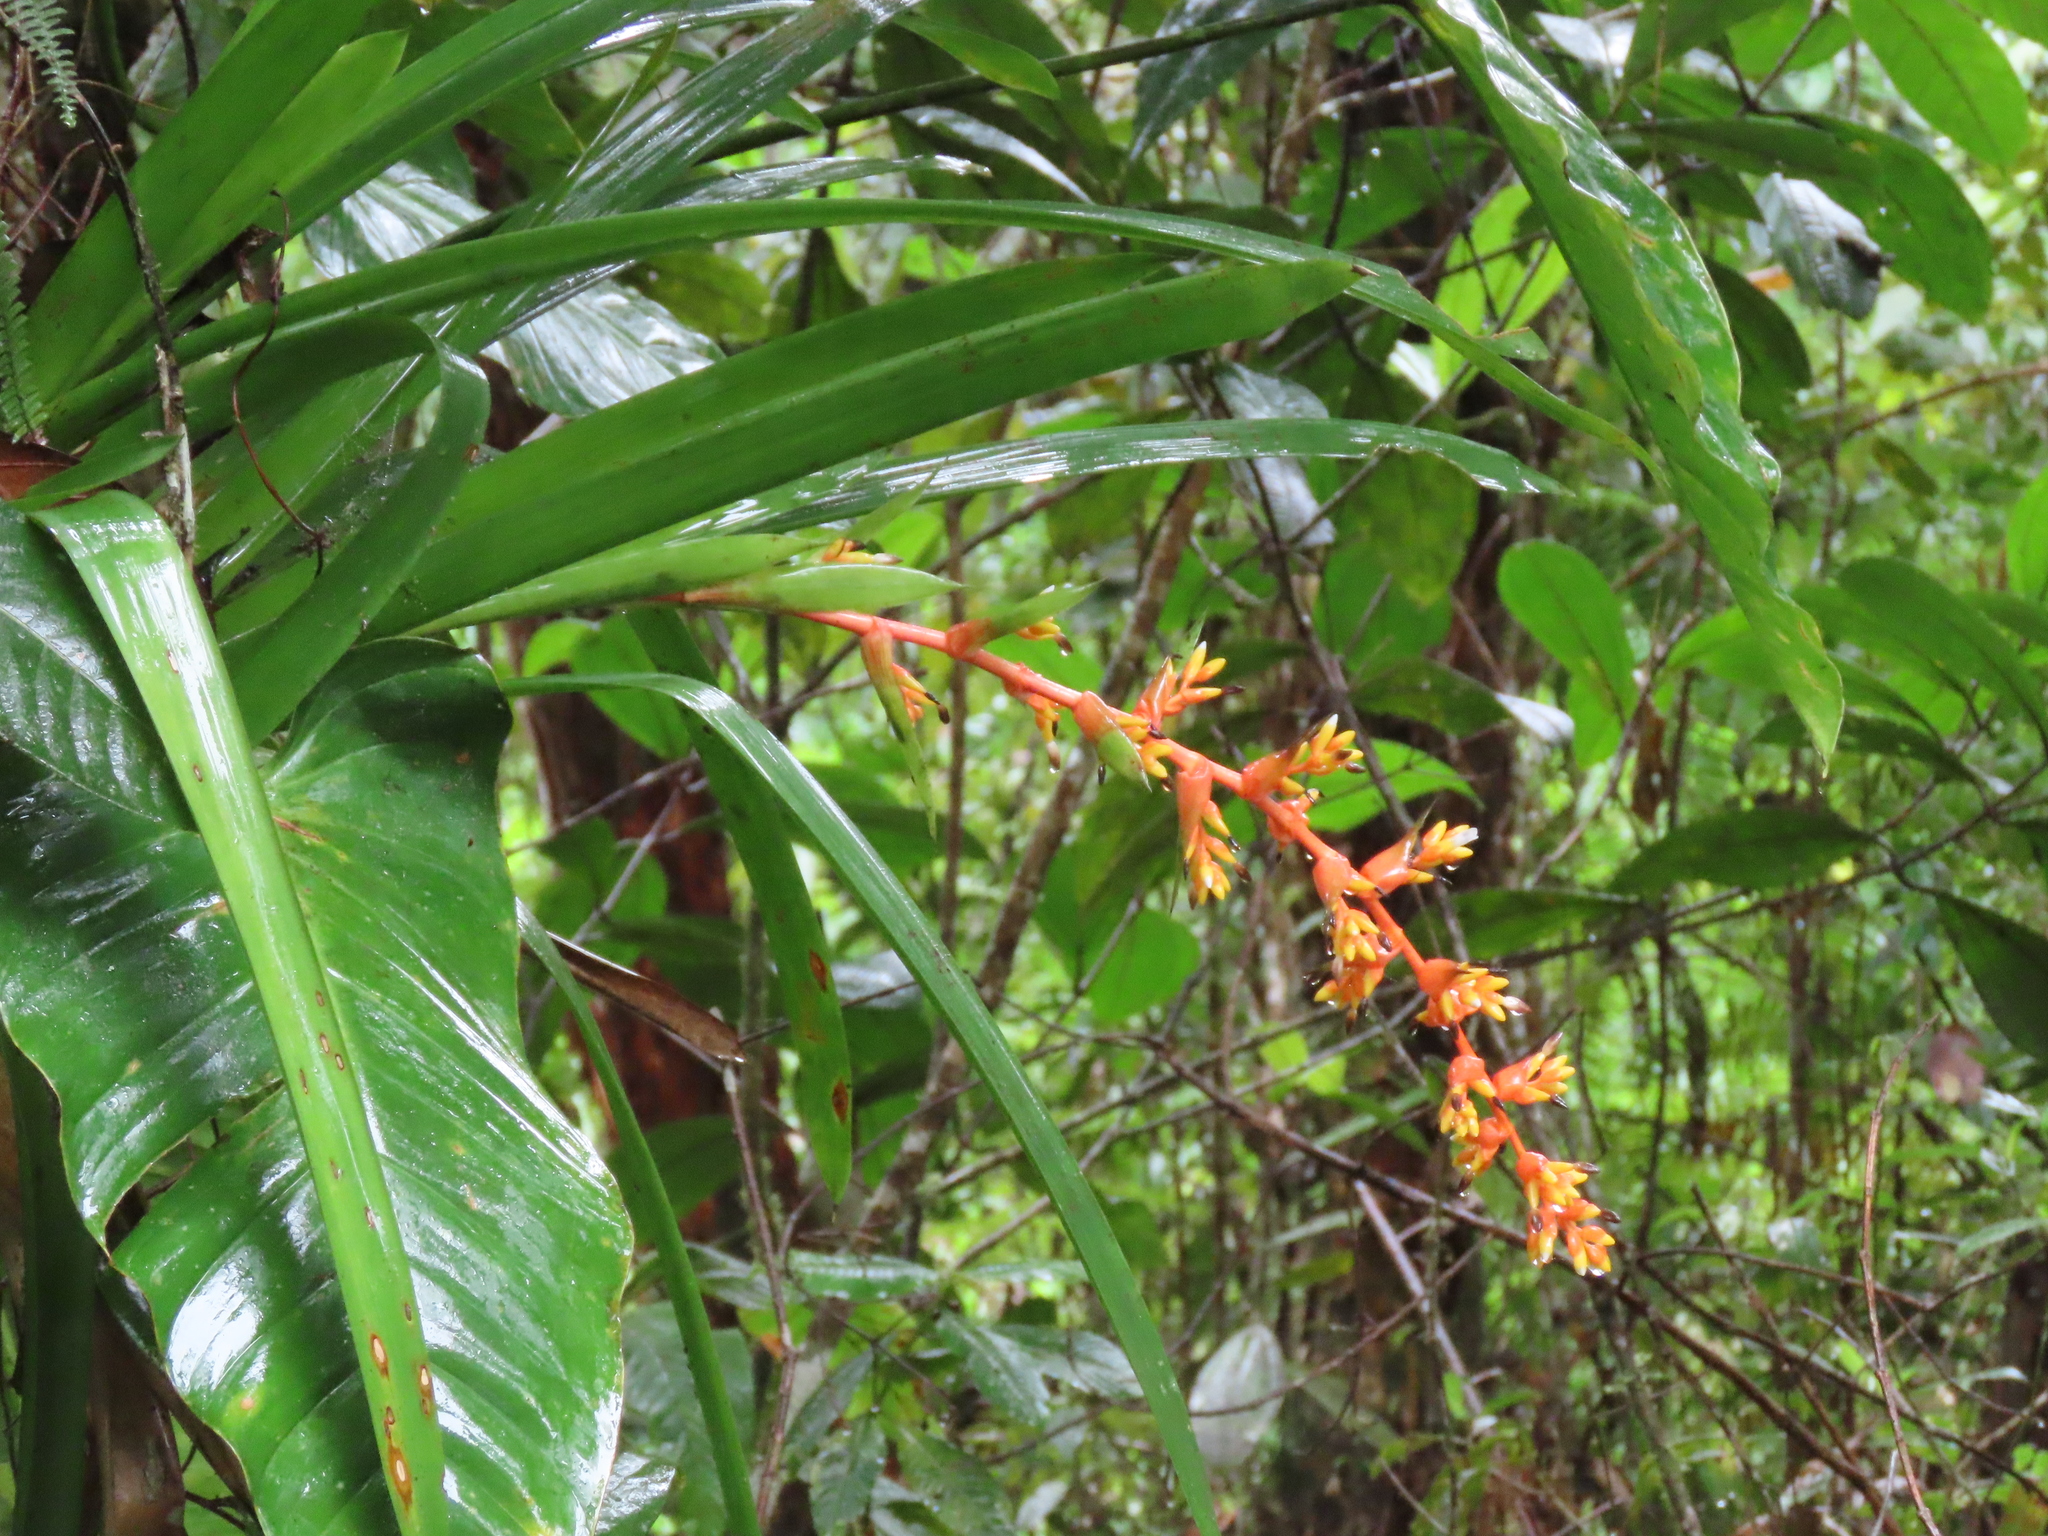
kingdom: Plantae
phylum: Tracheophyta
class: Liliopsida
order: Poales
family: Bromeliaceae
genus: Guzmania
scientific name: Guzmania multiflora
